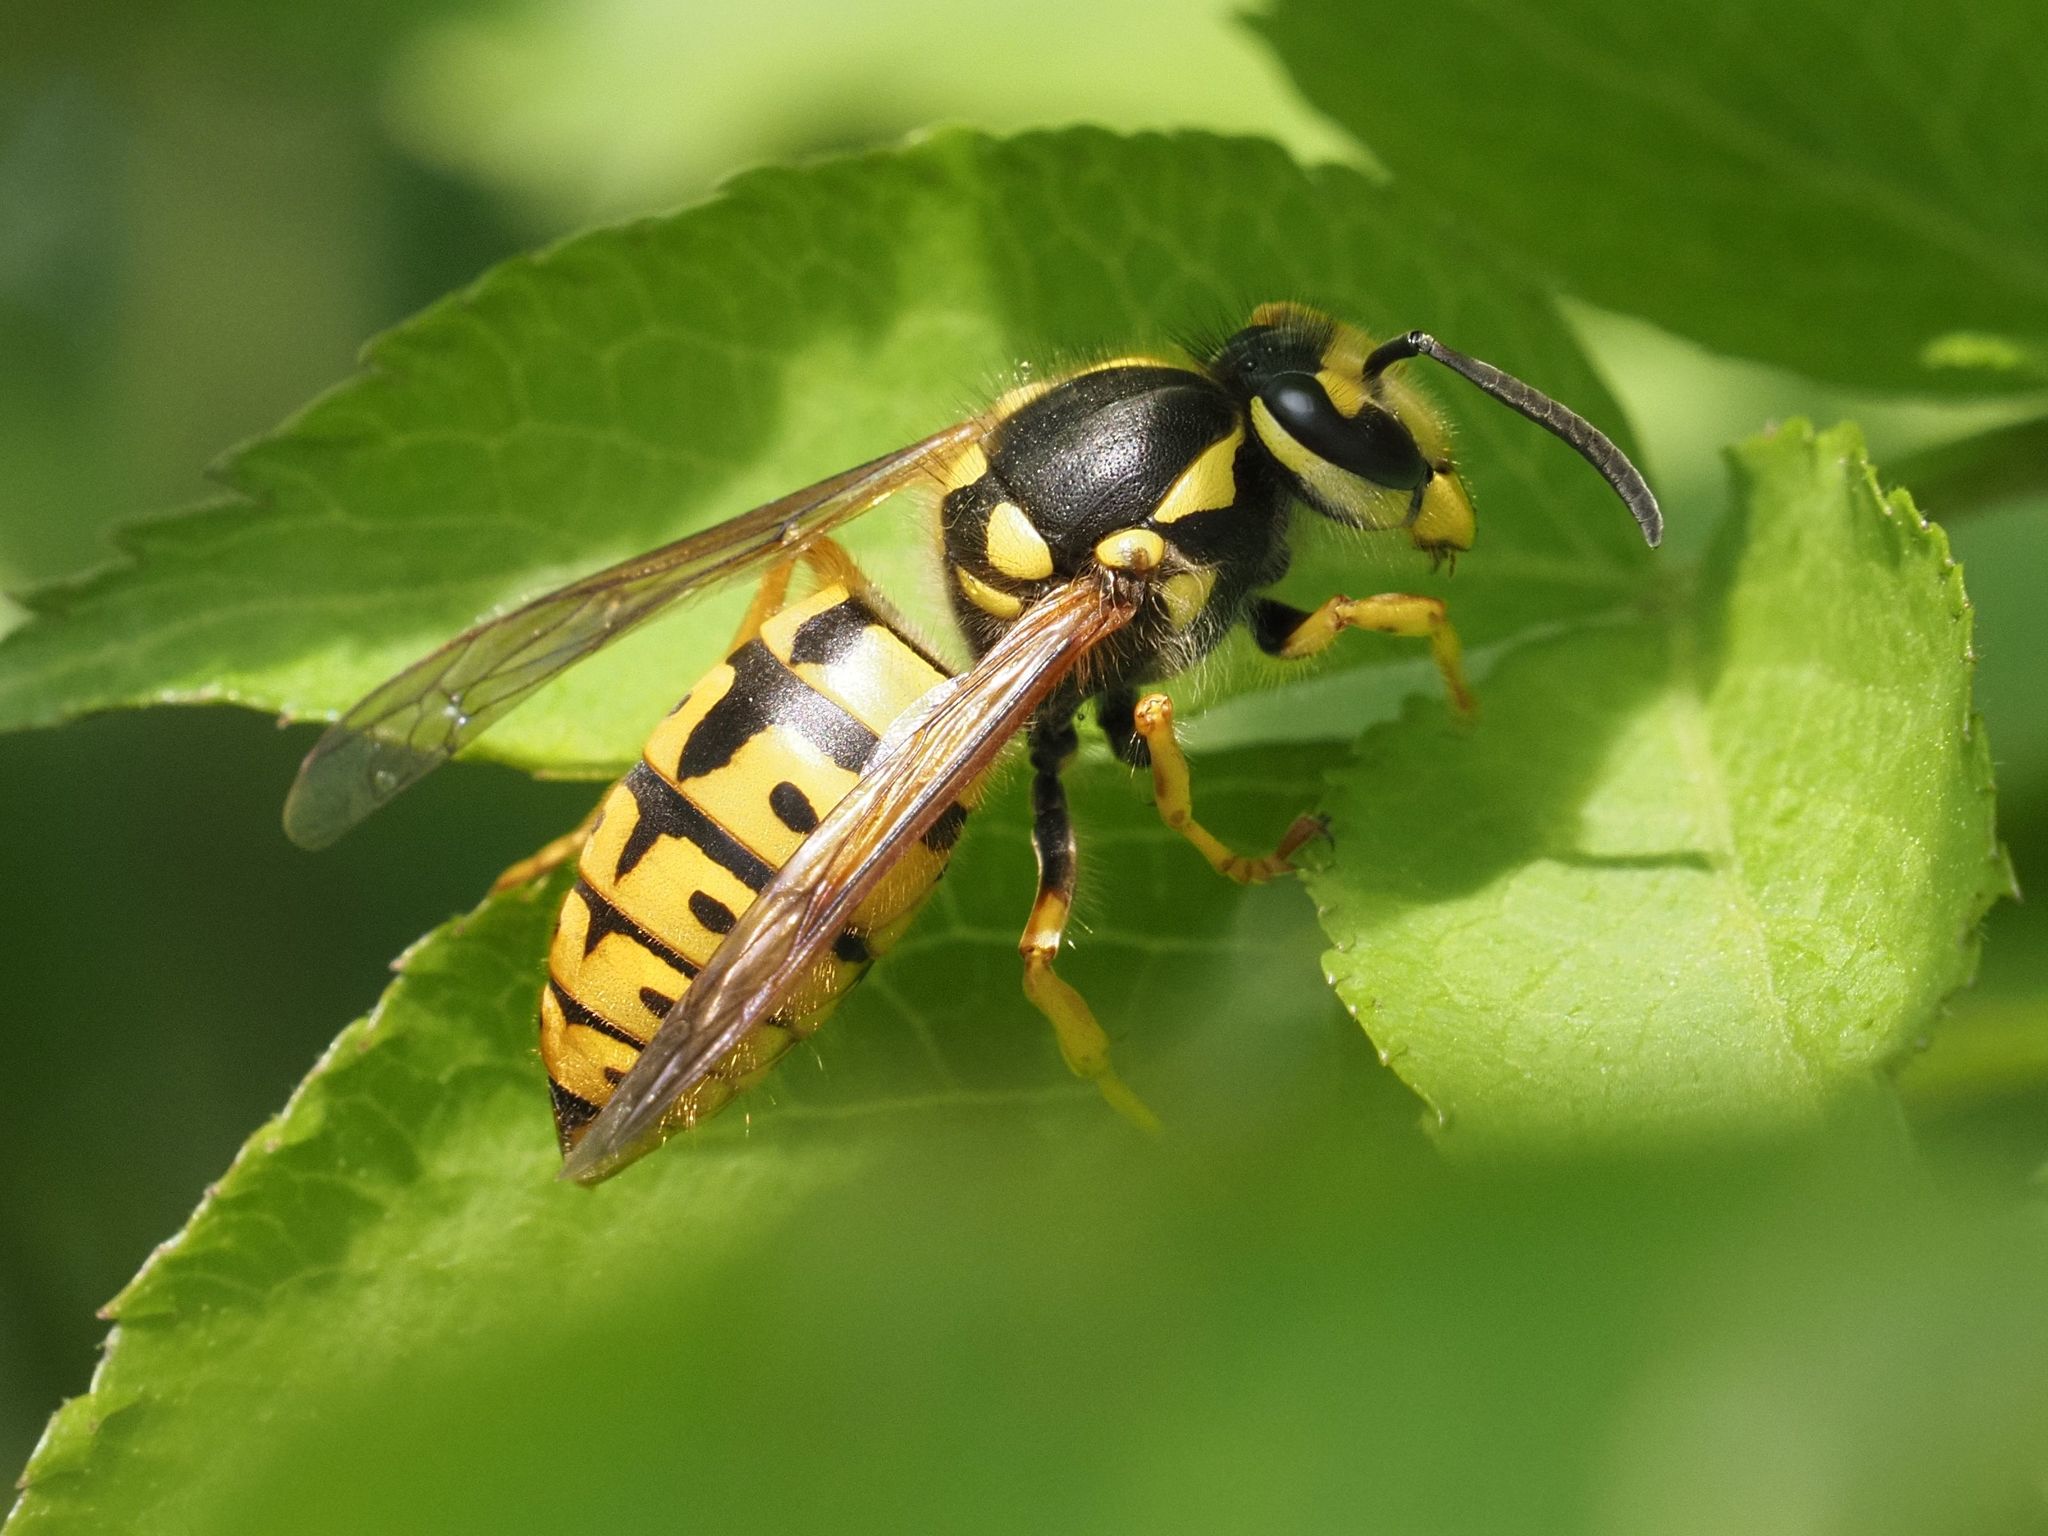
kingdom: Animalia
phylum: Arthropoda
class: Insecta
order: Hymenoptera
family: Vespidae
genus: Vespula
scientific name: Vespula germanica
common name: German wasp
